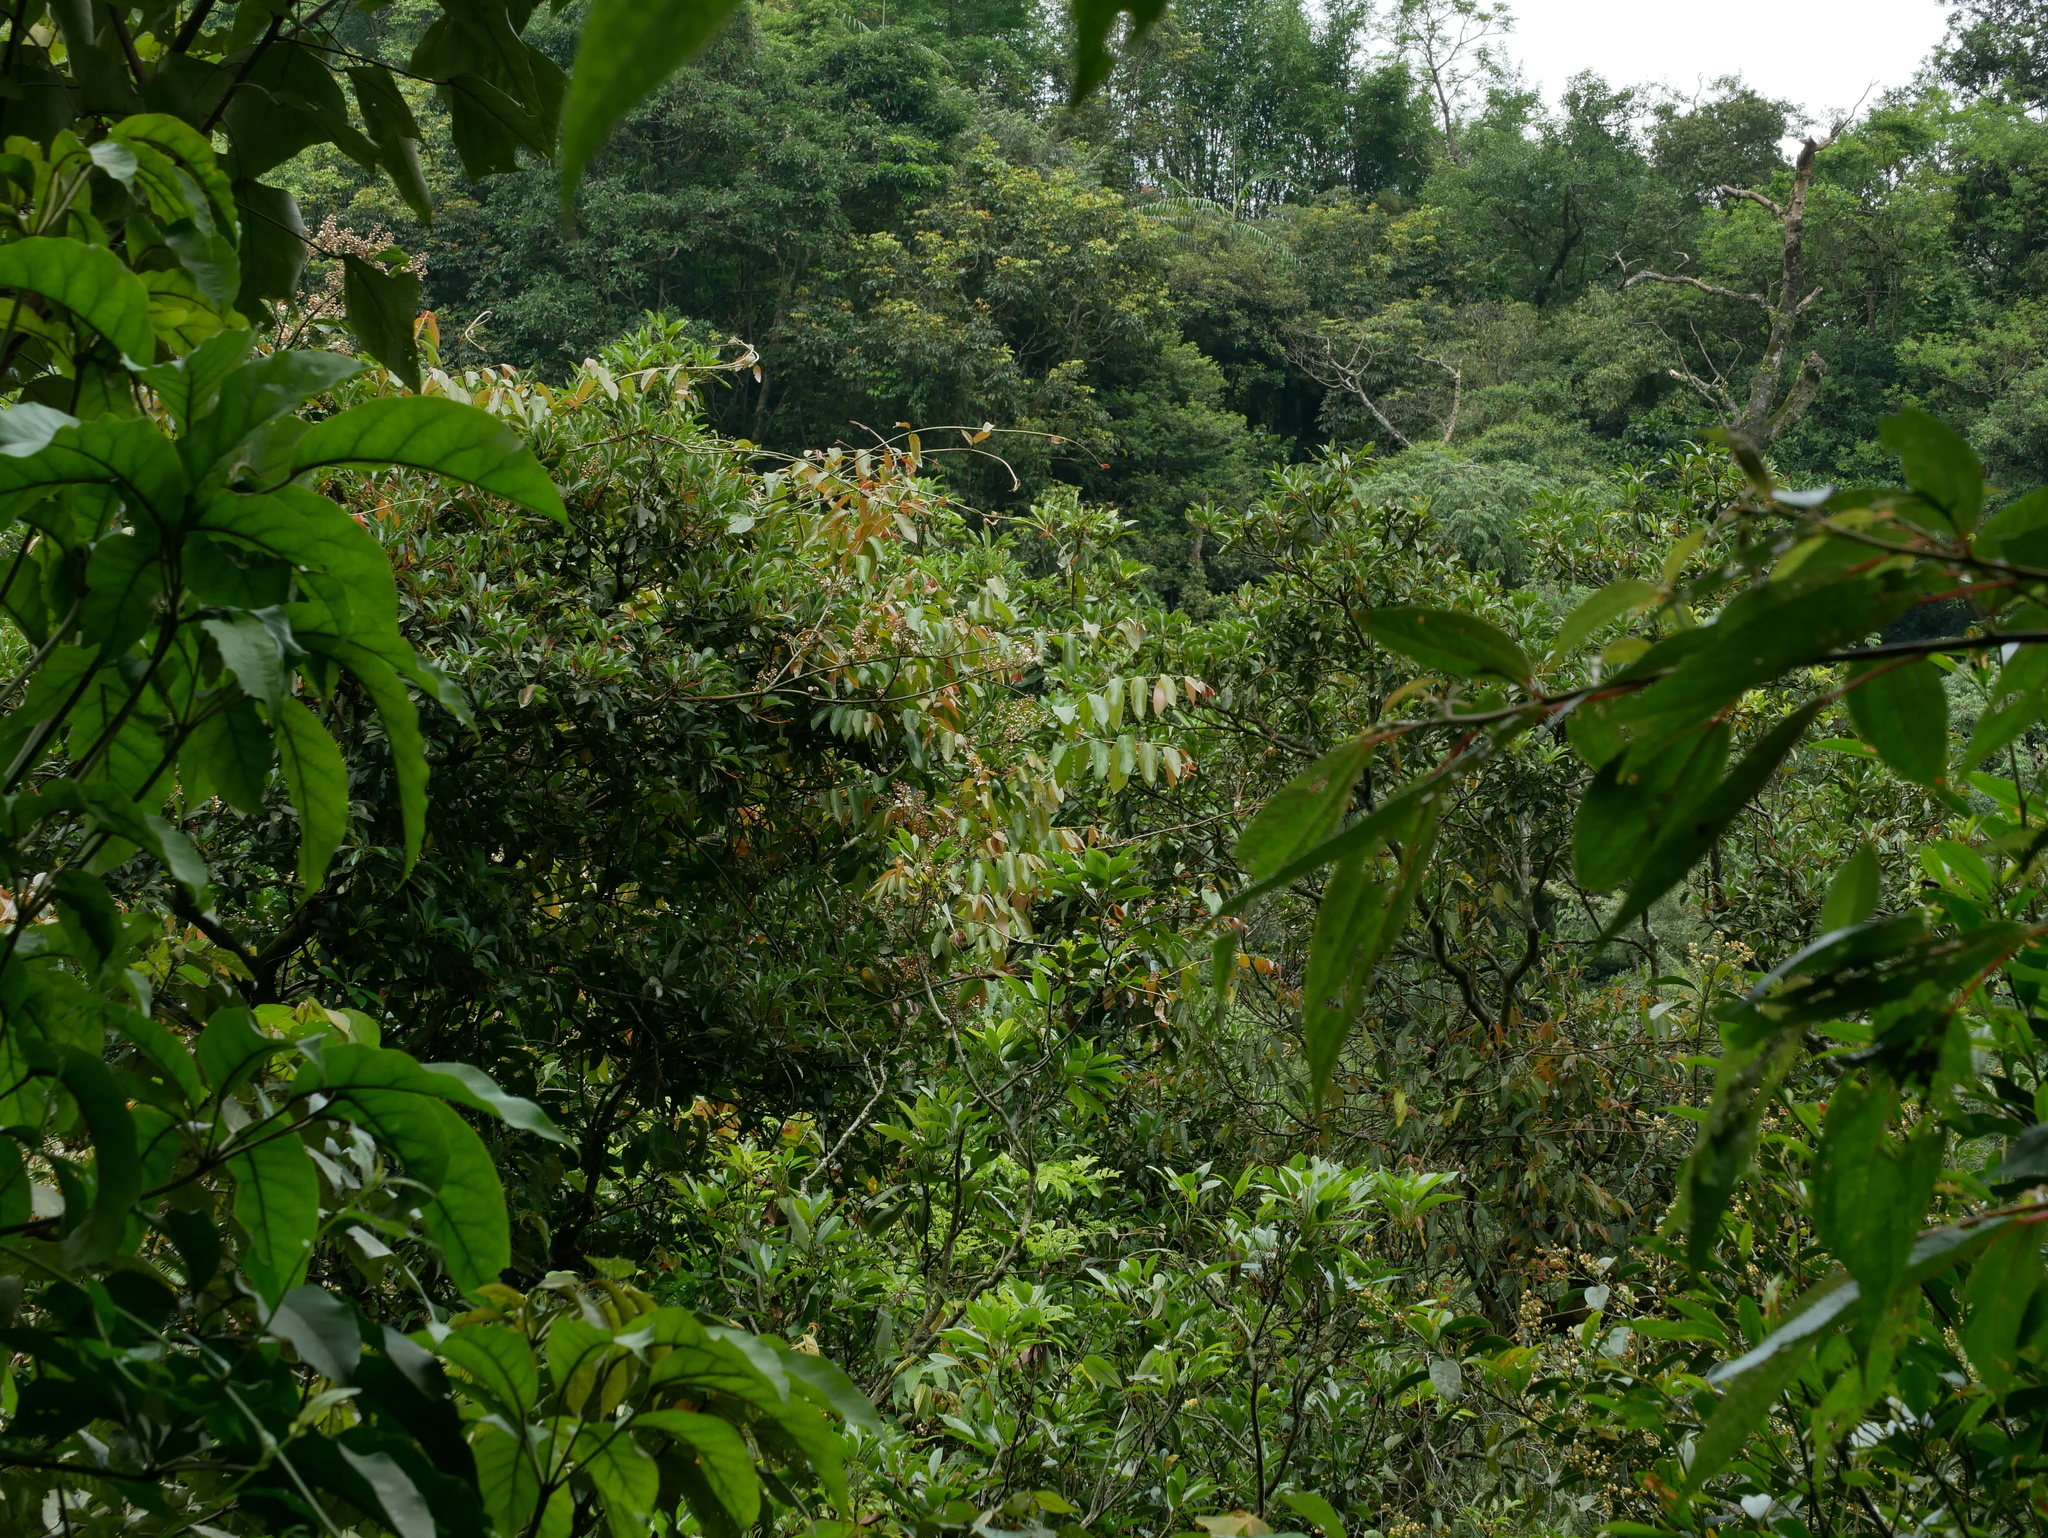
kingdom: Plantae
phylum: Tracheophyta
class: Magnoliopsida
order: Malpighiales
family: Malpighiaceae
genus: Hiptage
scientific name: Hiptage benghalensis
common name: Hiptage
